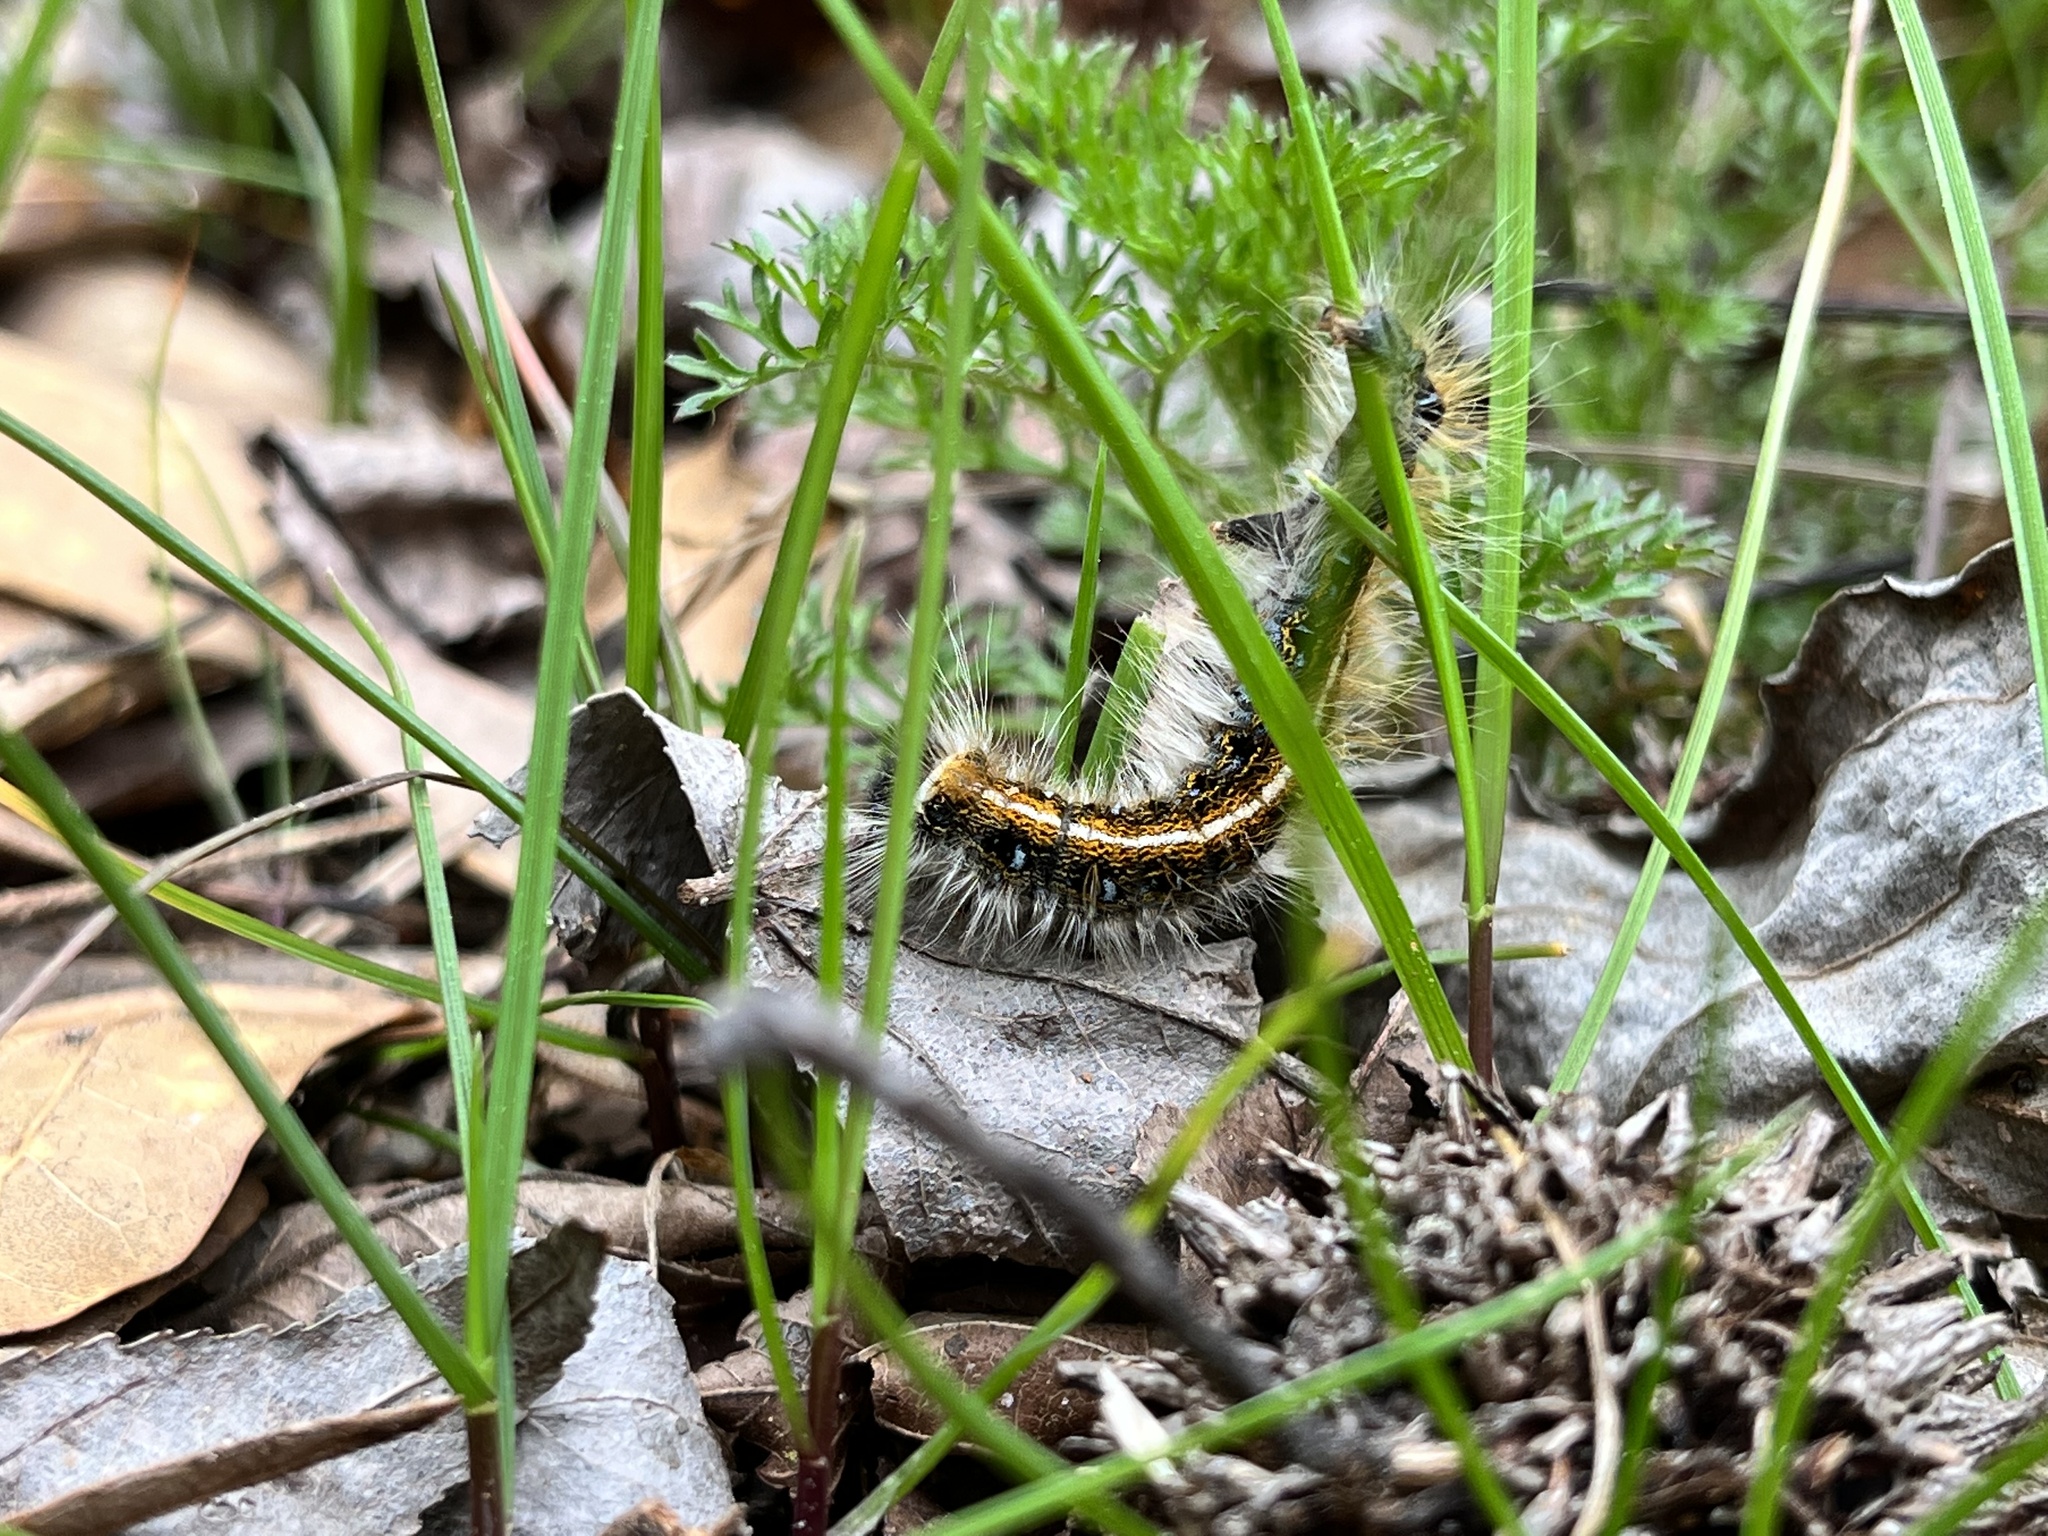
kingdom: Animalia
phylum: Arthropoda
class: Insecta
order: Lepidoptera
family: Lasiocampidae
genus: Malacosoma
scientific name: Malacosoma americana
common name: Eastern tent caterpillar moth
